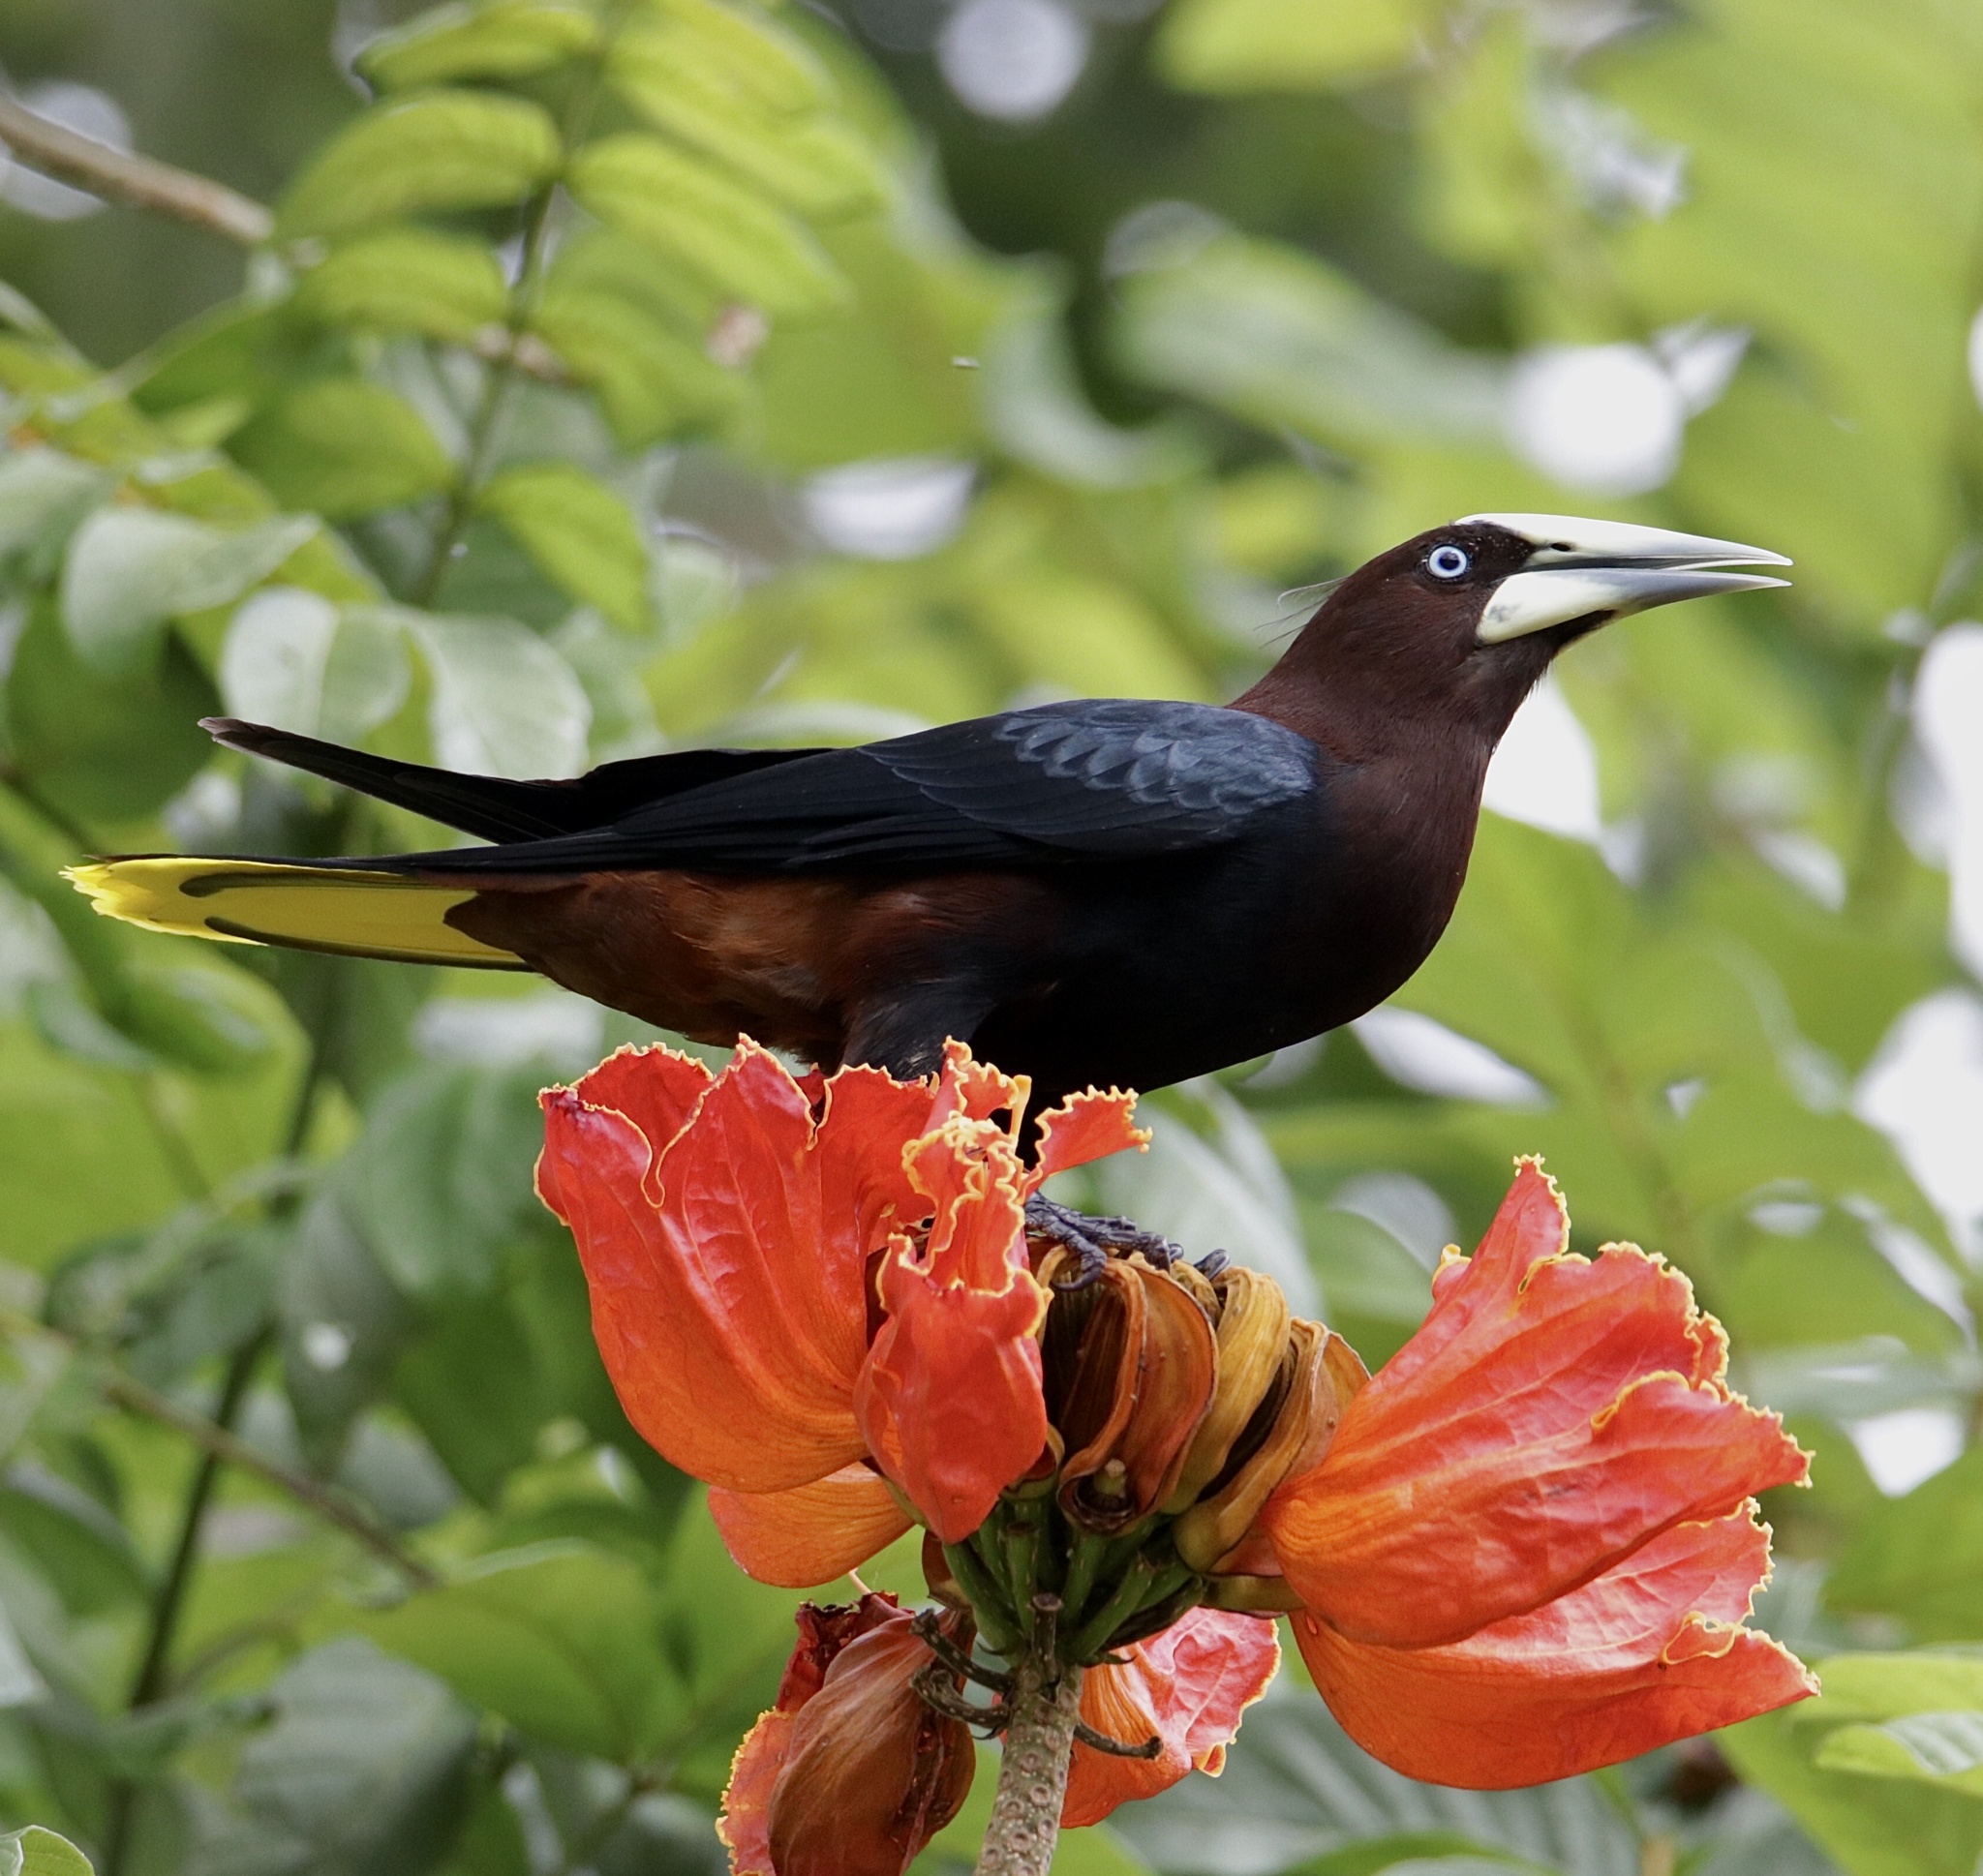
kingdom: Animalia
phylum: Chordata
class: Aves
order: Passeriformes
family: Icteridae
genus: Psarocolius
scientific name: Psarocolius wagleri
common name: Chestnut-headed oropendola
